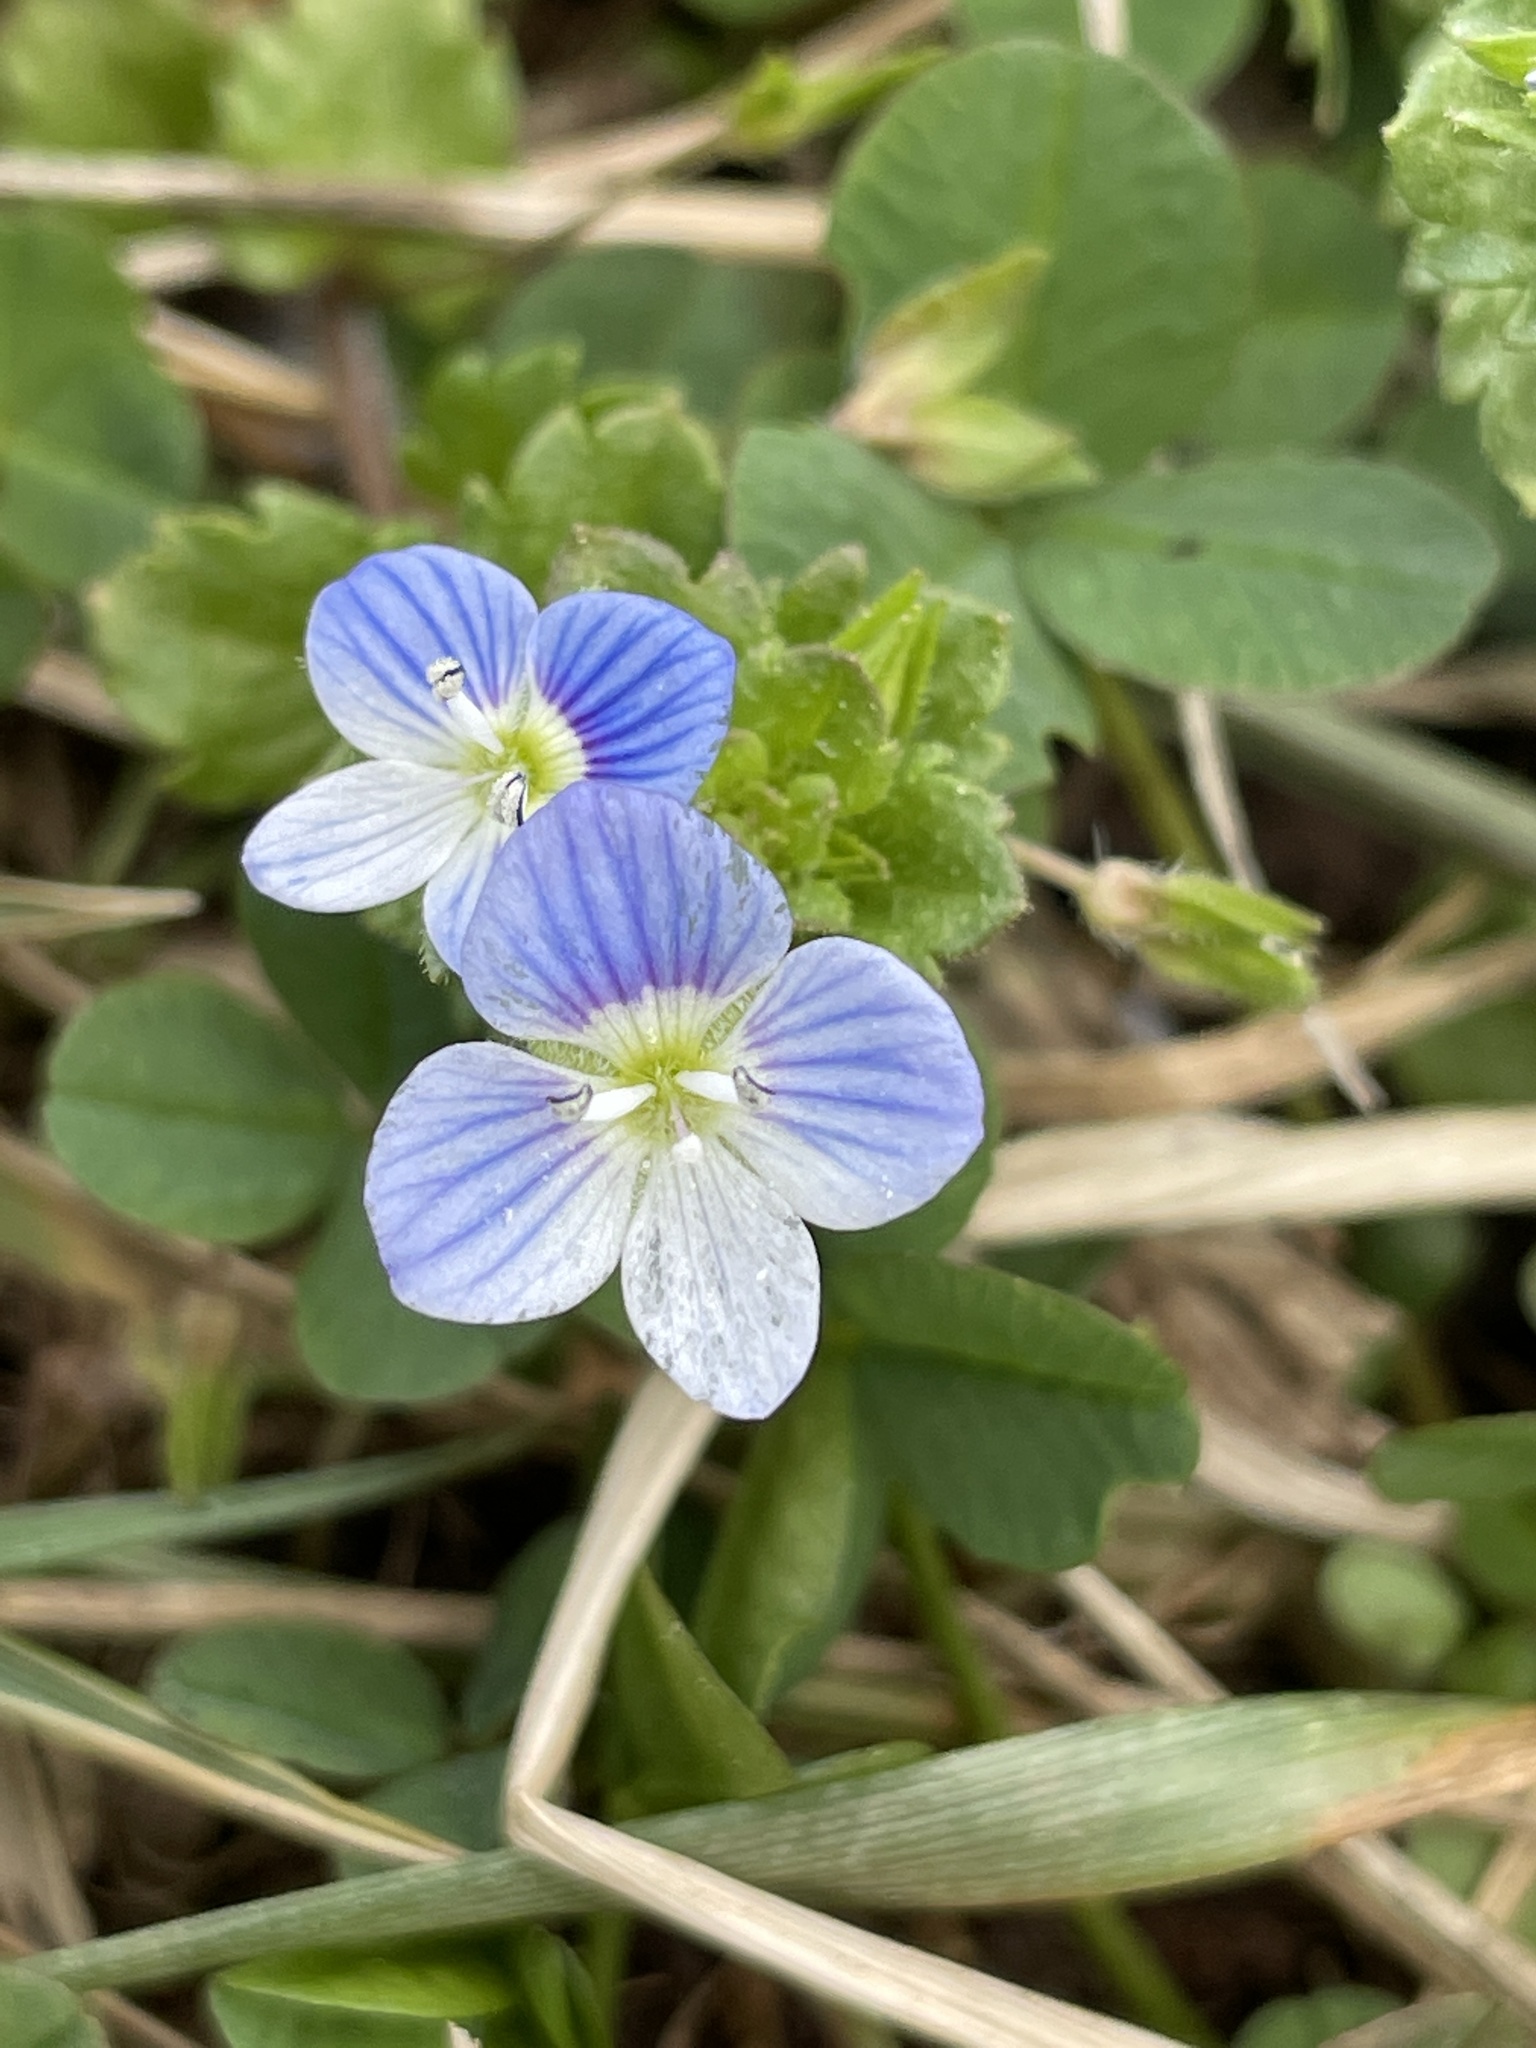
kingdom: Plantae
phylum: Tracheophyta
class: Magnoliopsida
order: Lamiales
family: Plantaginaceae
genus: Veronica
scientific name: Veronica persica
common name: Common field-speedwell
